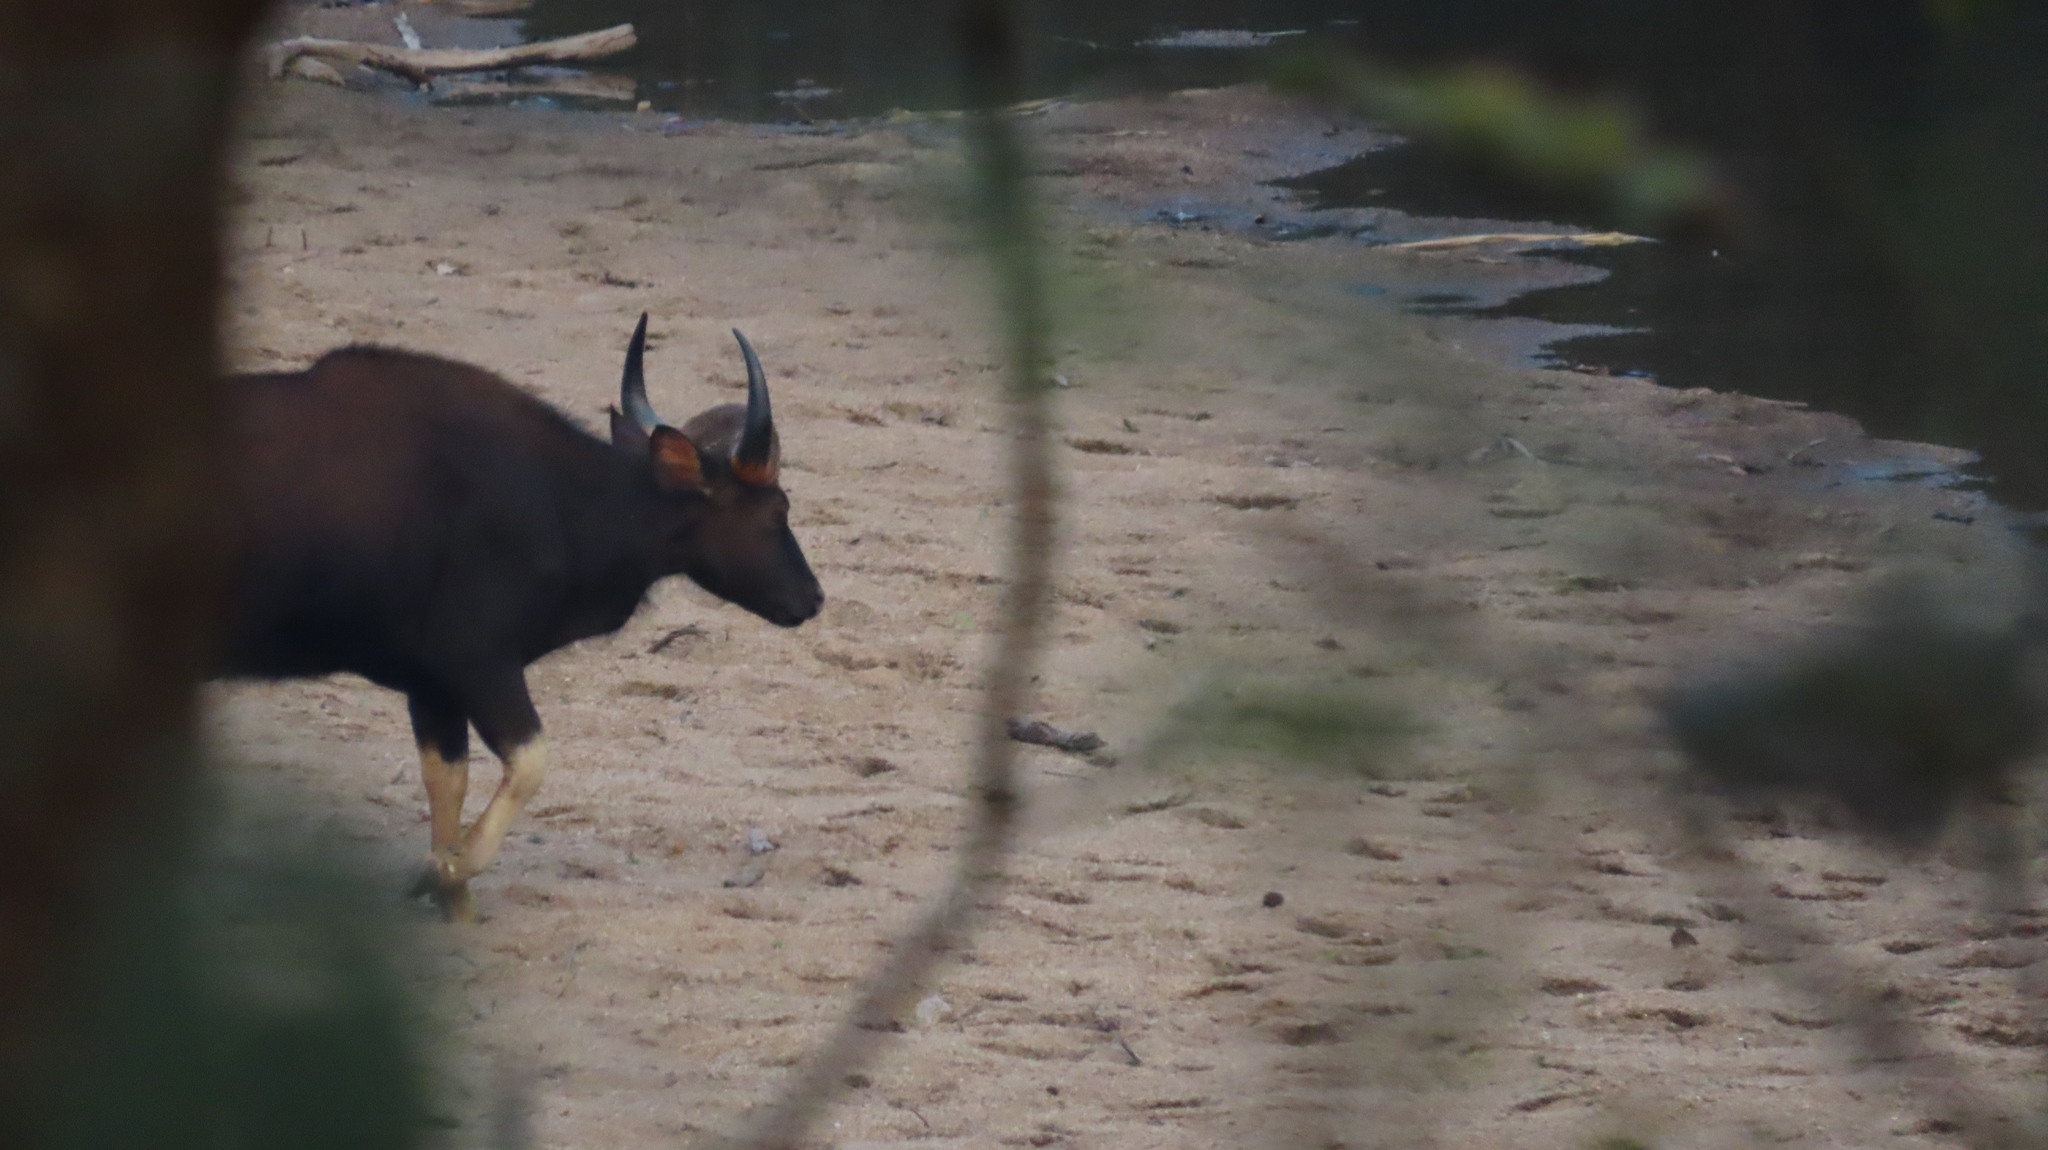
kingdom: Animalia
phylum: Chordata
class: Mammalia
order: Artiodactyla
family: Bovidae
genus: Bos
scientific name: Bos frontalis
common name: Gaur
